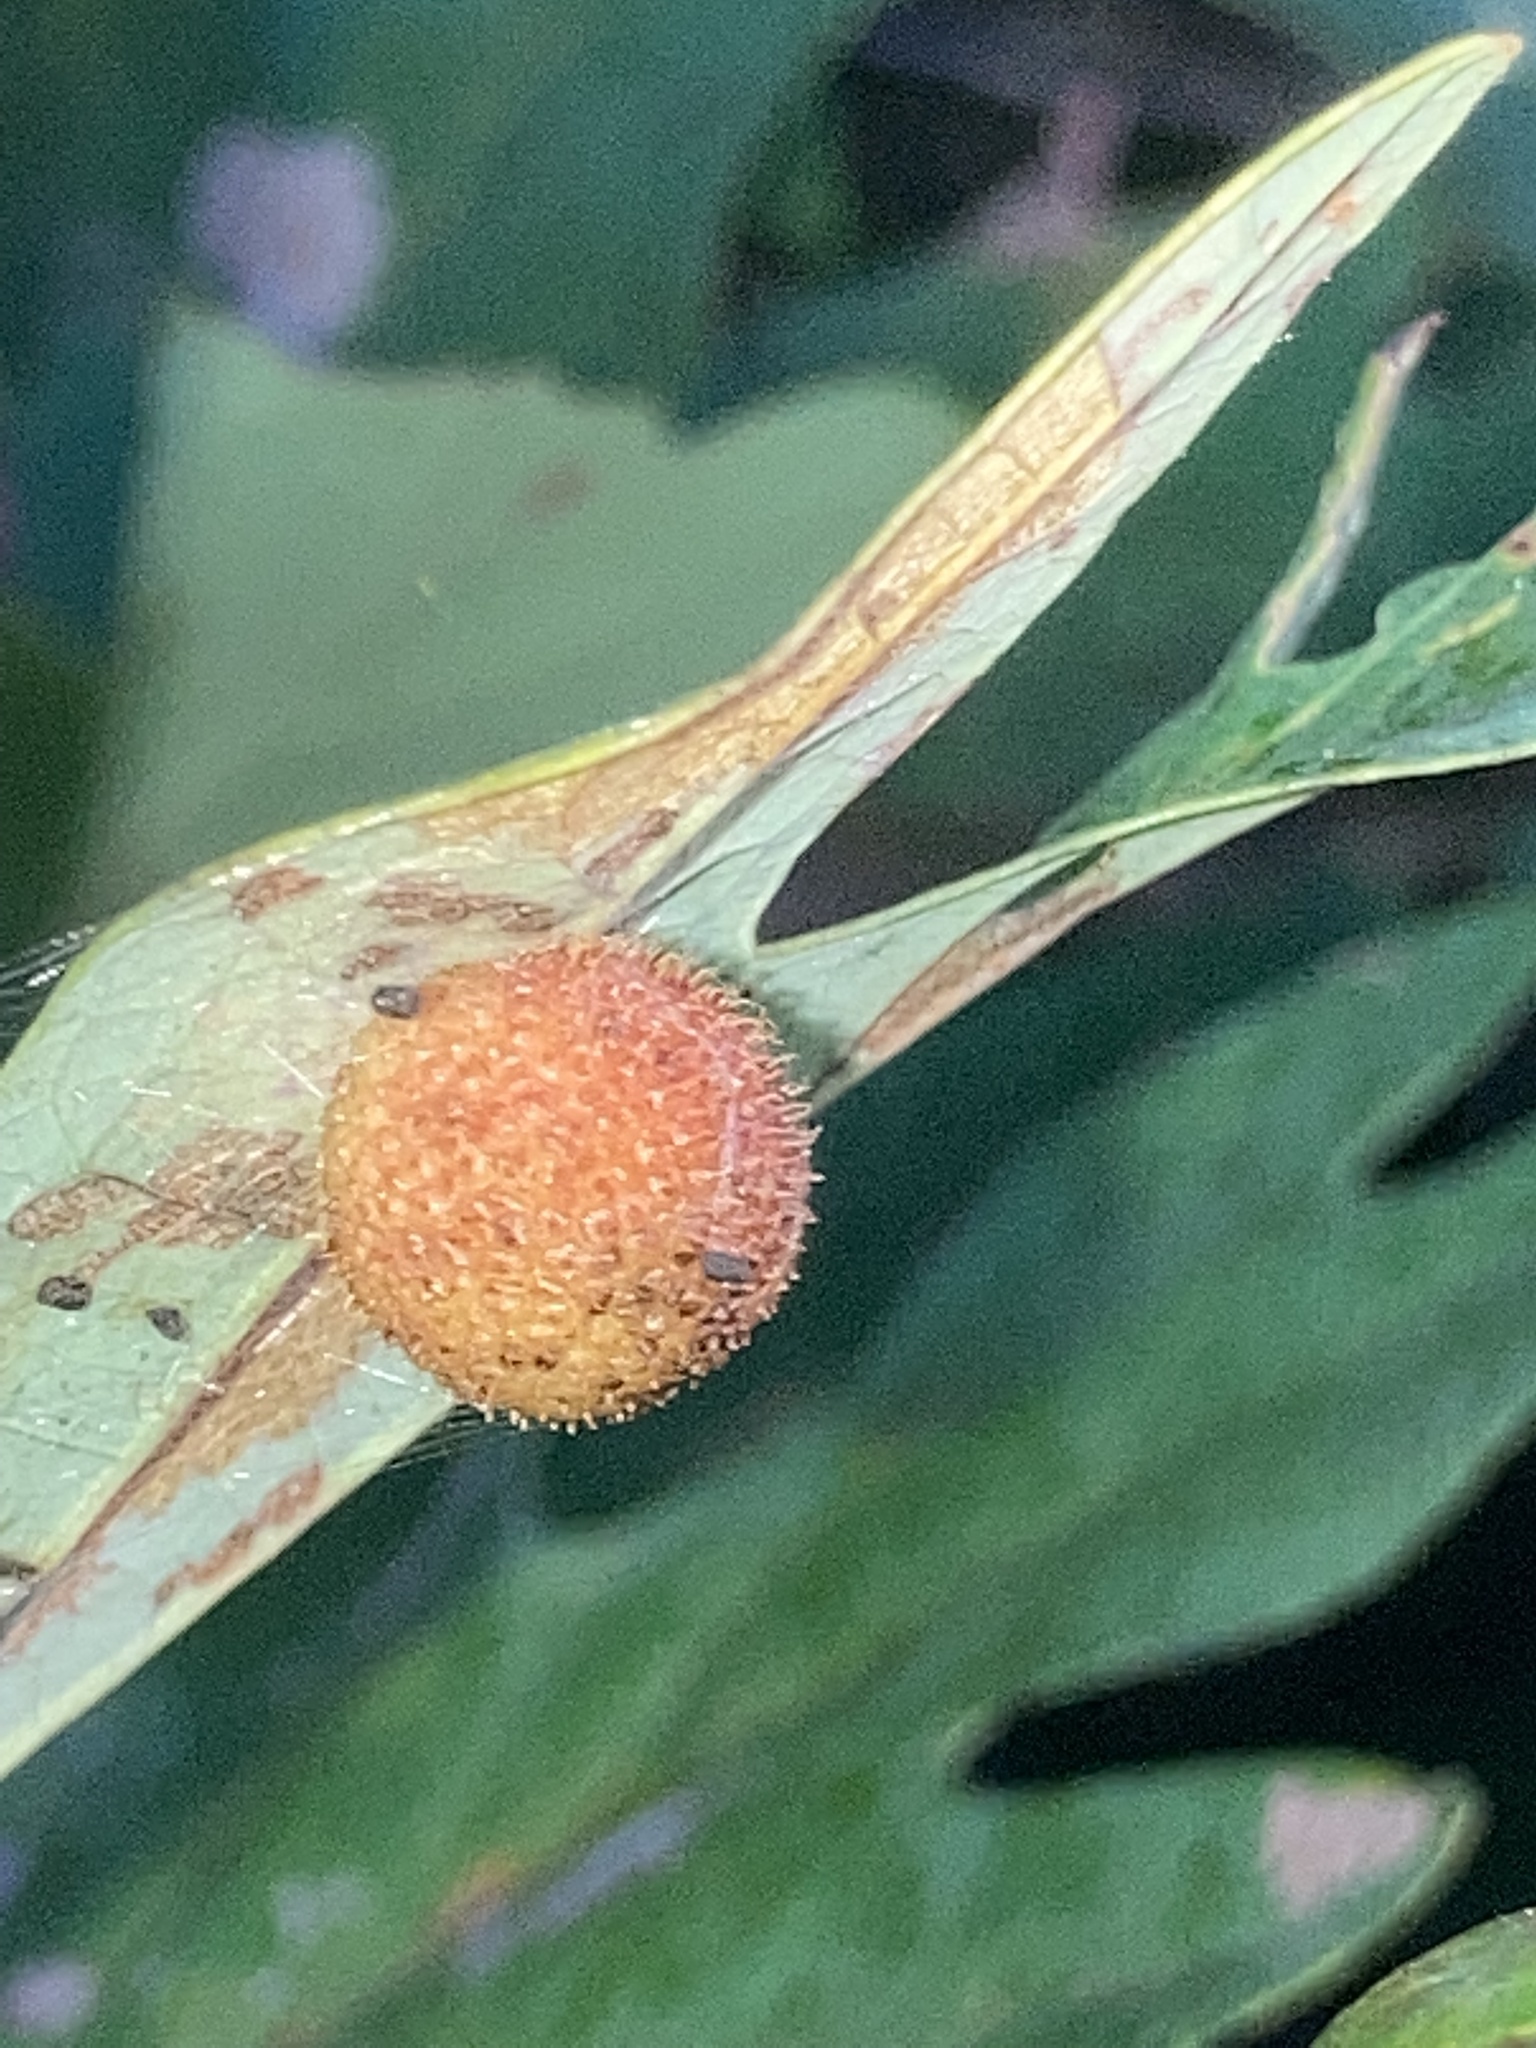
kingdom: Animalia
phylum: Arthropoda
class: Insecta
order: Hymenoptera
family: Cynipidae
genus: Acraspis
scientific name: Acraspis erinacei
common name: Hedgehog gall wasp
